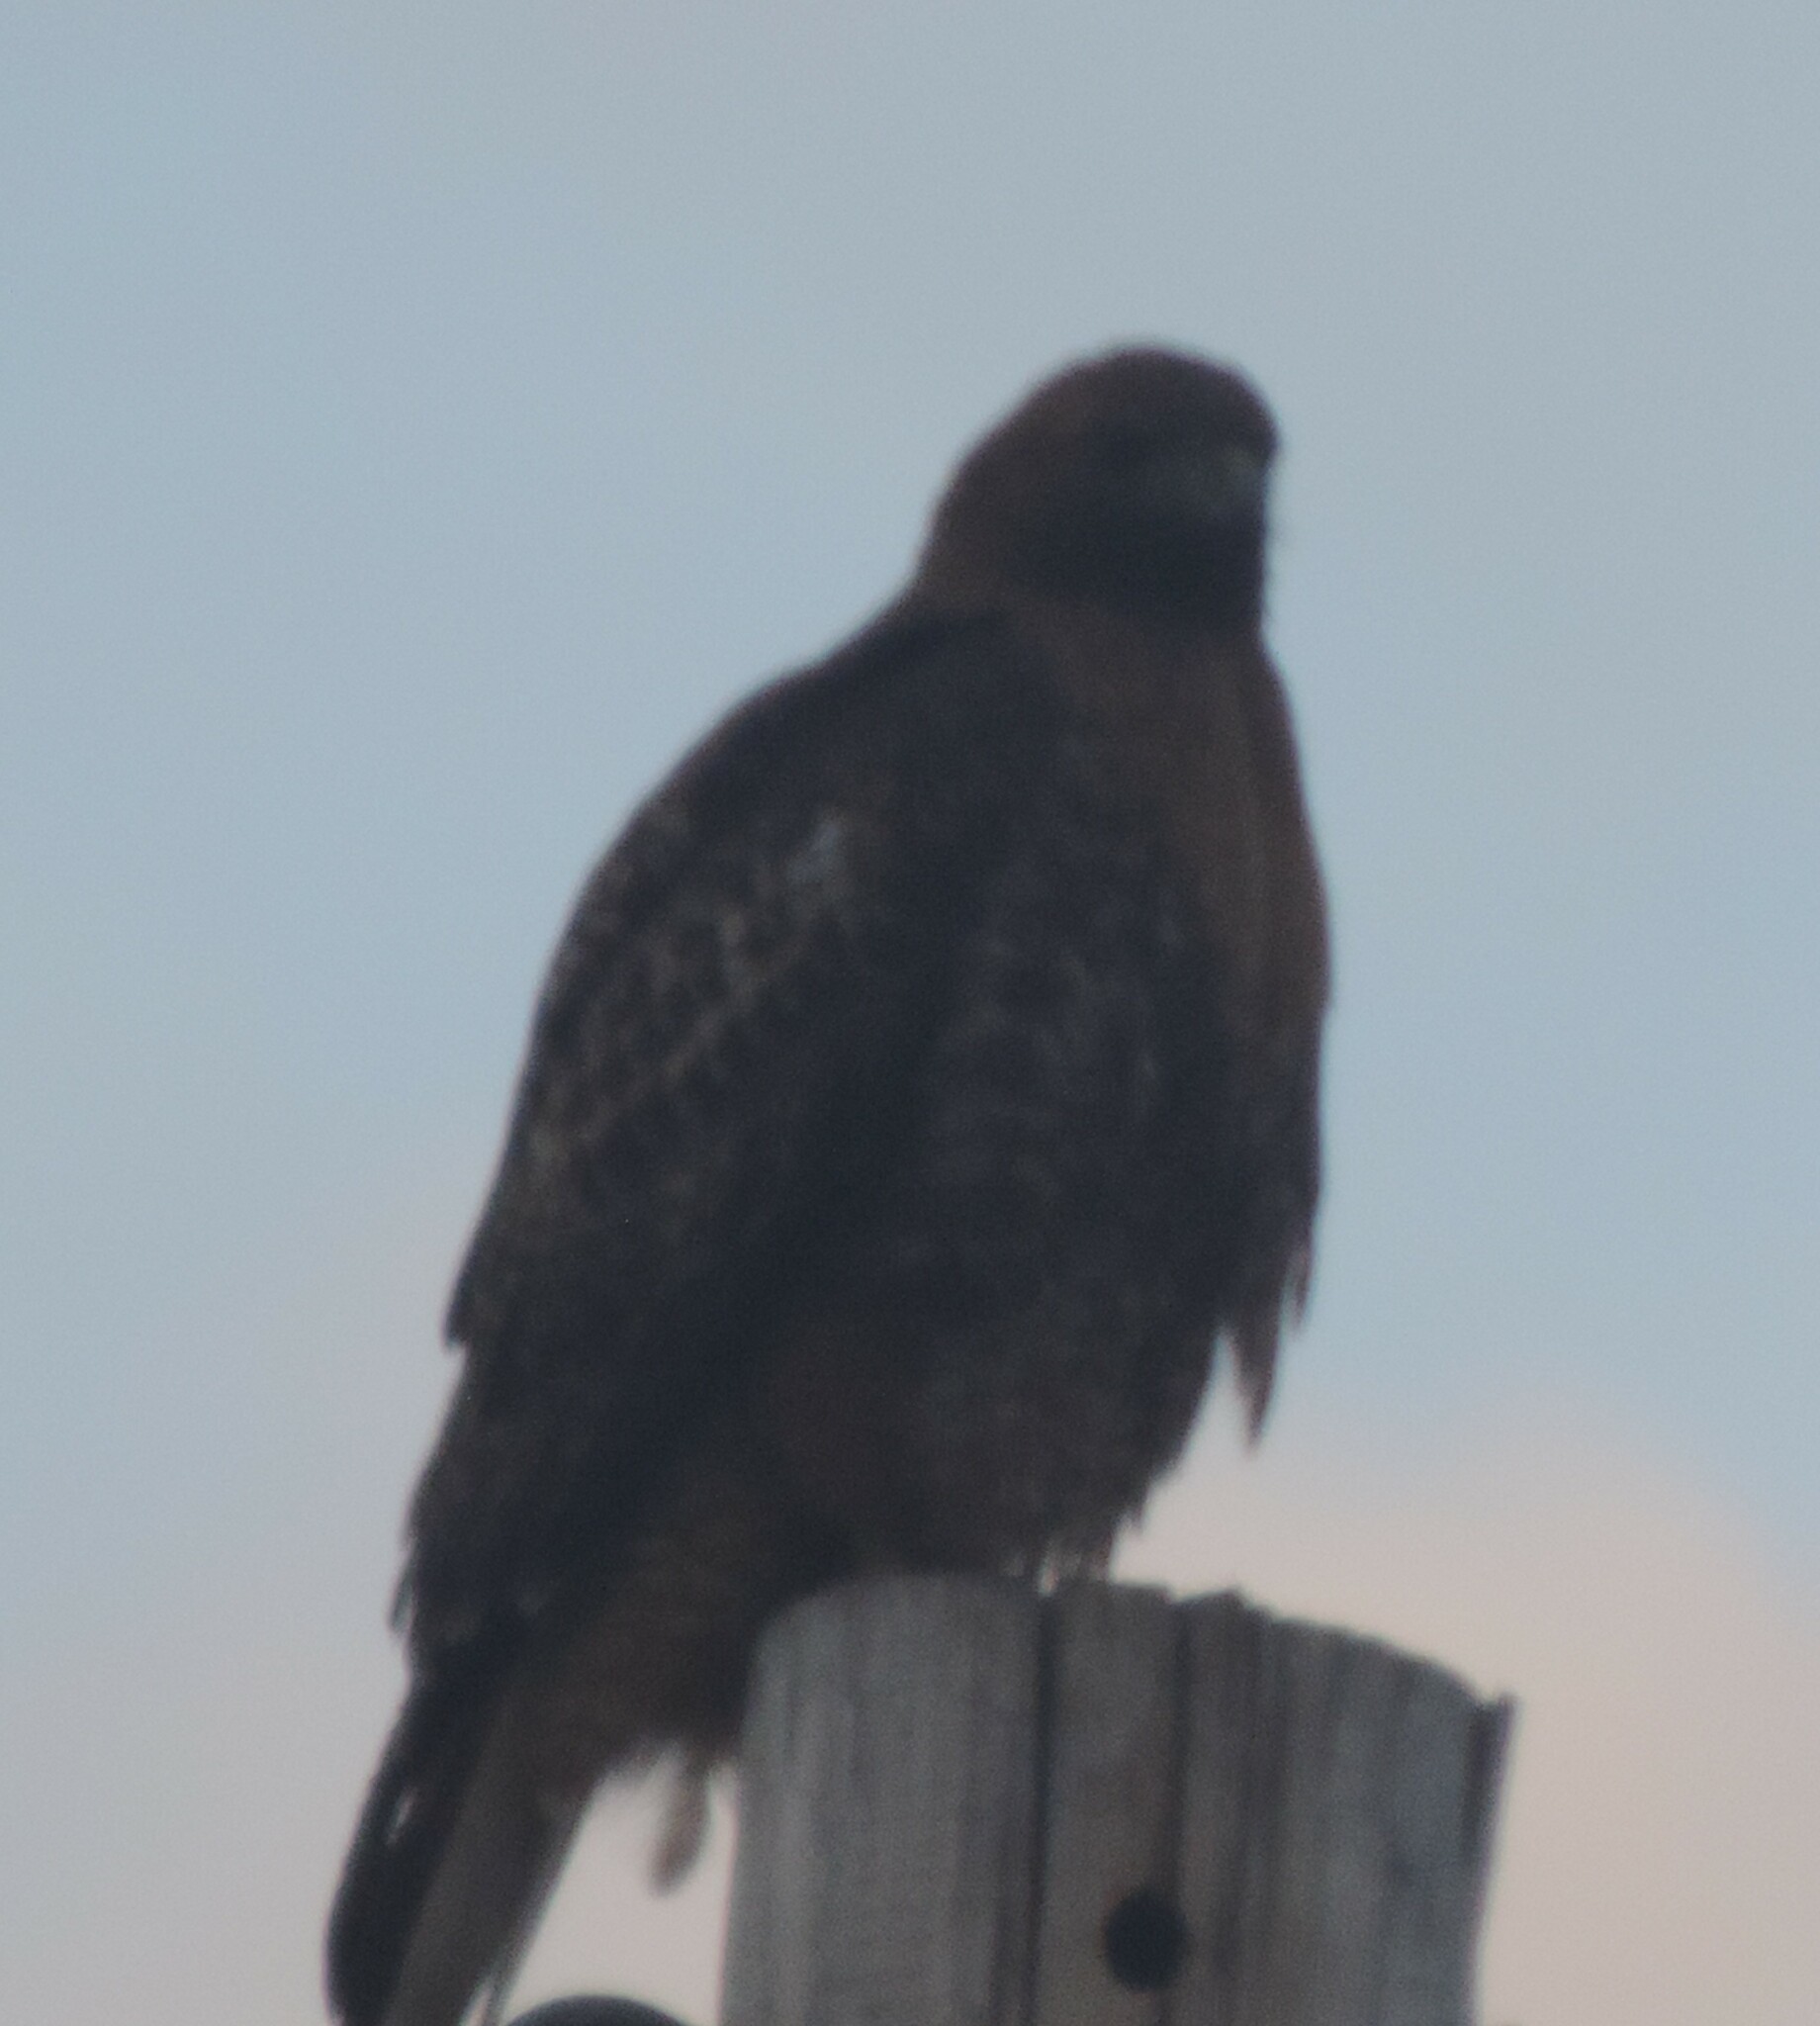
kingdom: Animalia
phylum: Chordata
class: Aves
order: Accipitriformes
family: Accipitridae
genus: Buteo
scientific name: Buteo jamaicensis
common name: Red-tailed hawk
